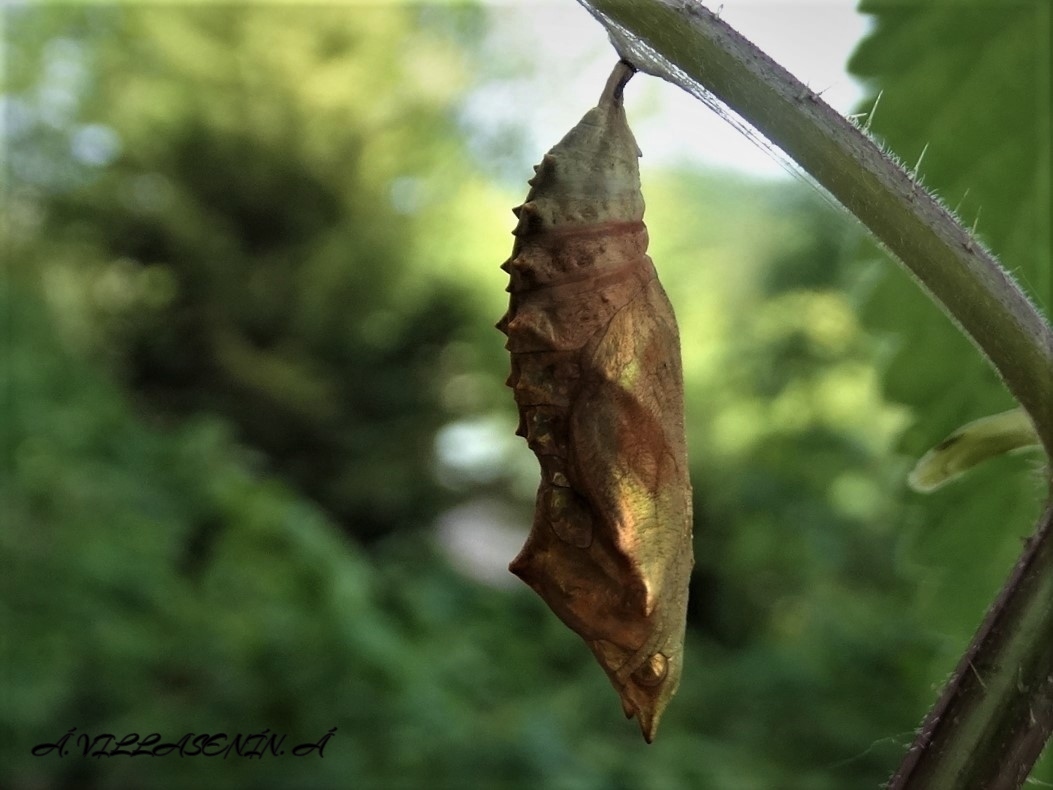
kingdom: Animalia
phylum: Arthropoda
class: Insecta
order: Lepidoptera
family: Nymphalidae
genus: Aglais
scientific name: Aglais urticae
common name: Small tortoiseshell
